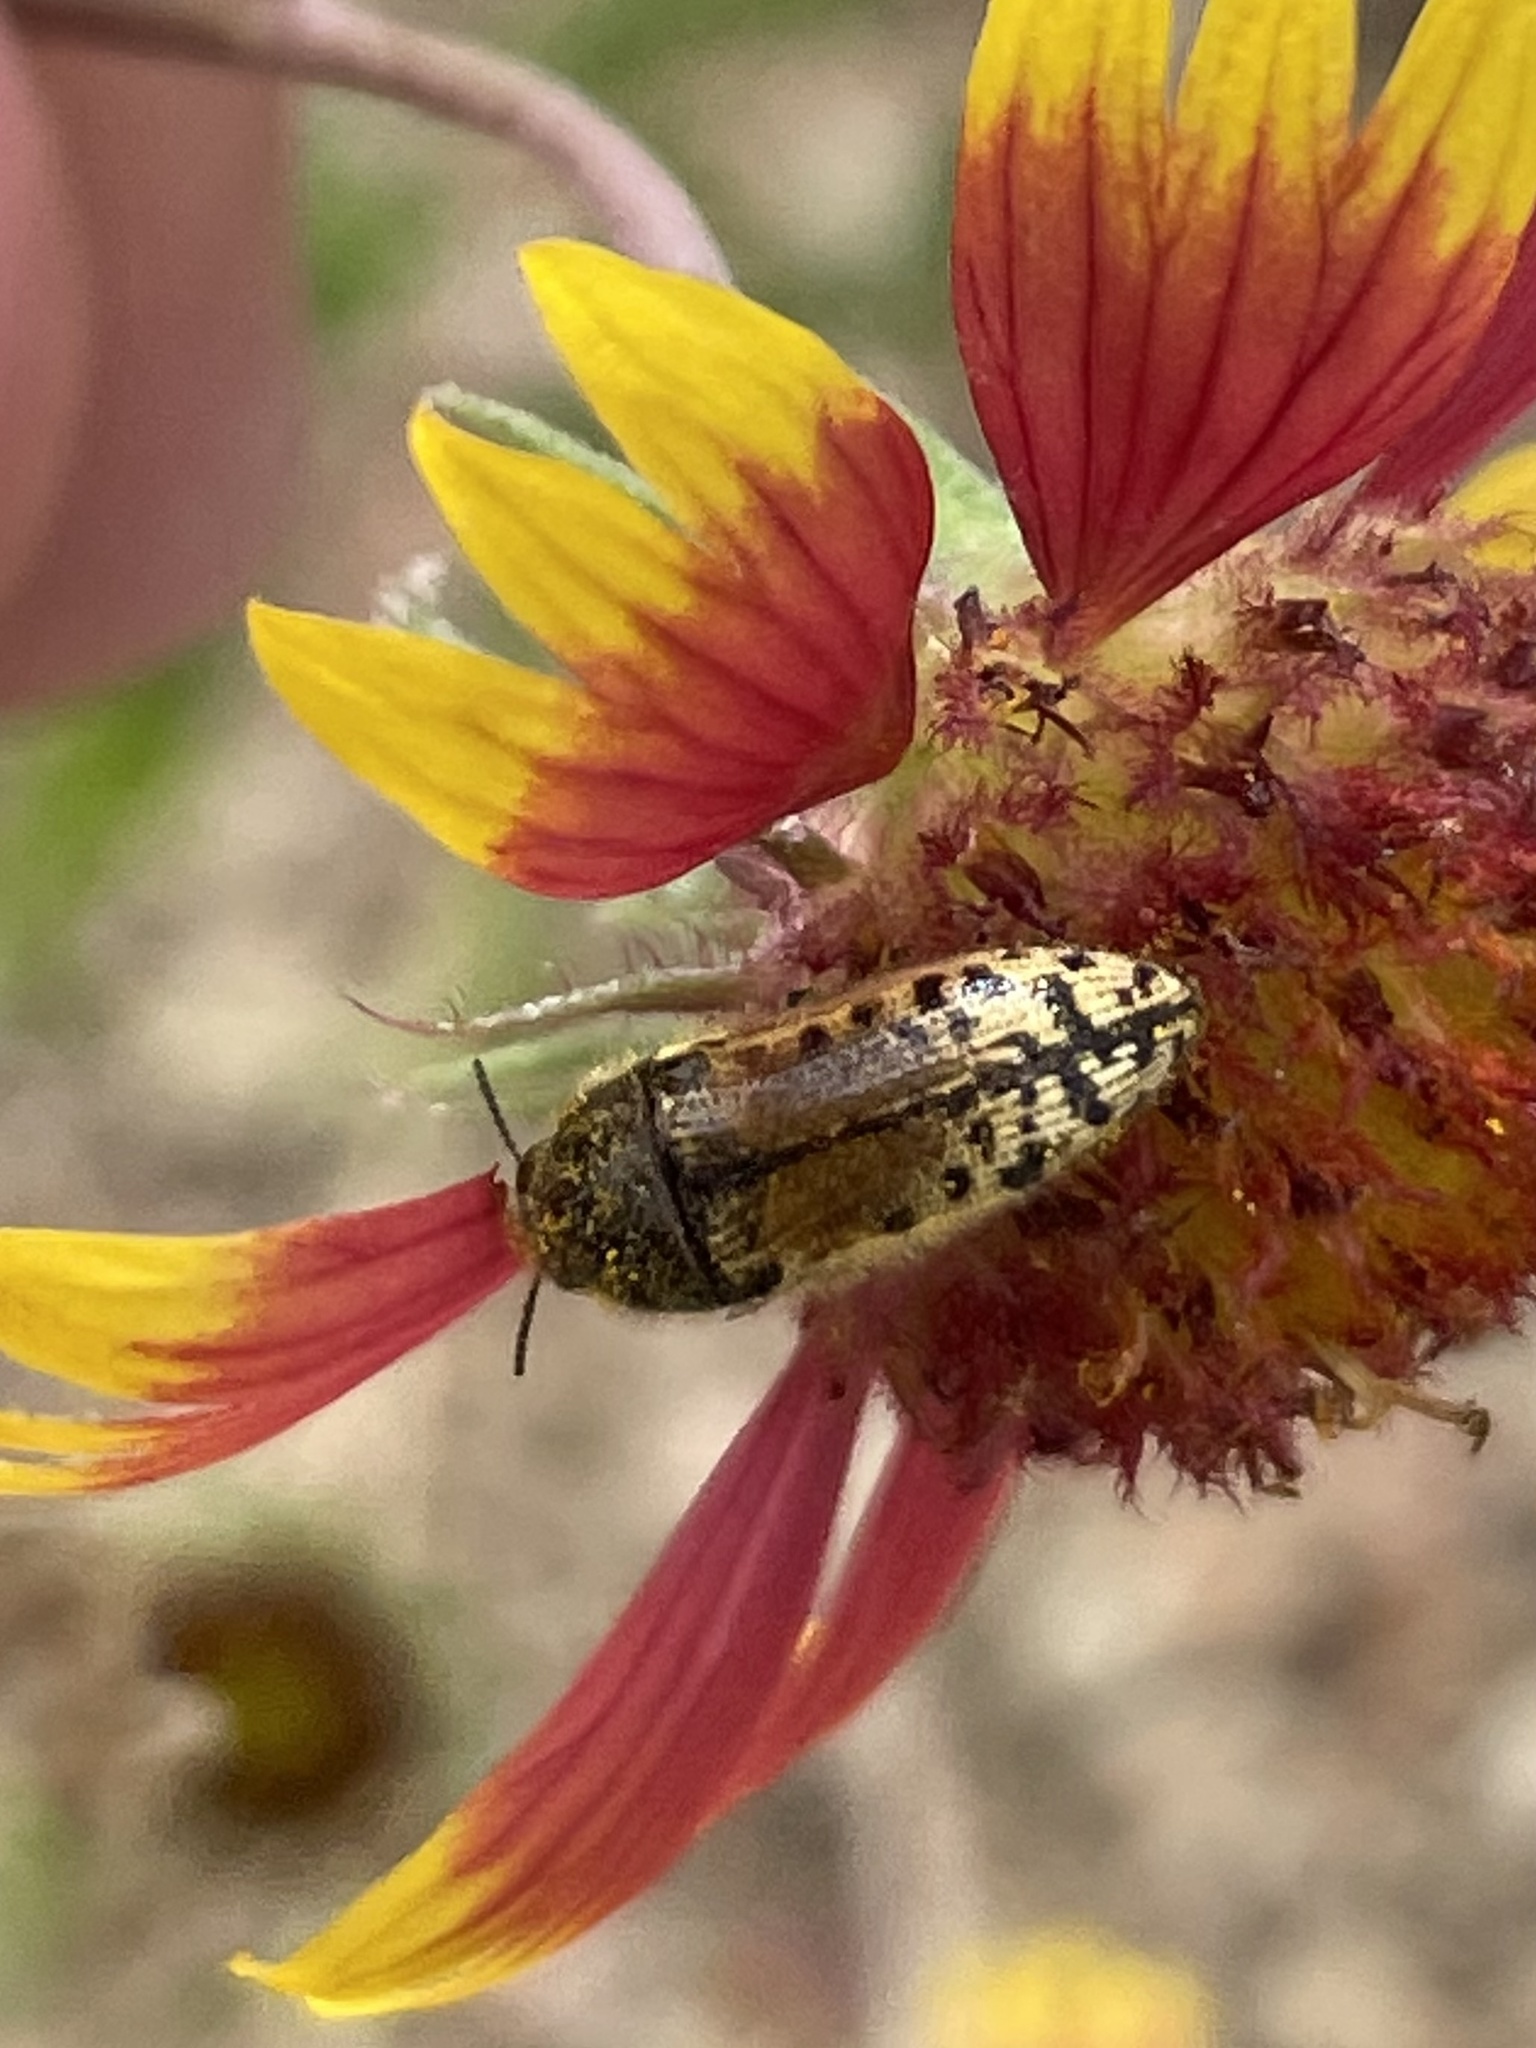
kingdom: Animalia
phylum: Arthropoda
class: Insecta
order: Coleoptera
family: Buprestidae
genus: Acmaeodera
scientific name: Acmaeodera mixta
